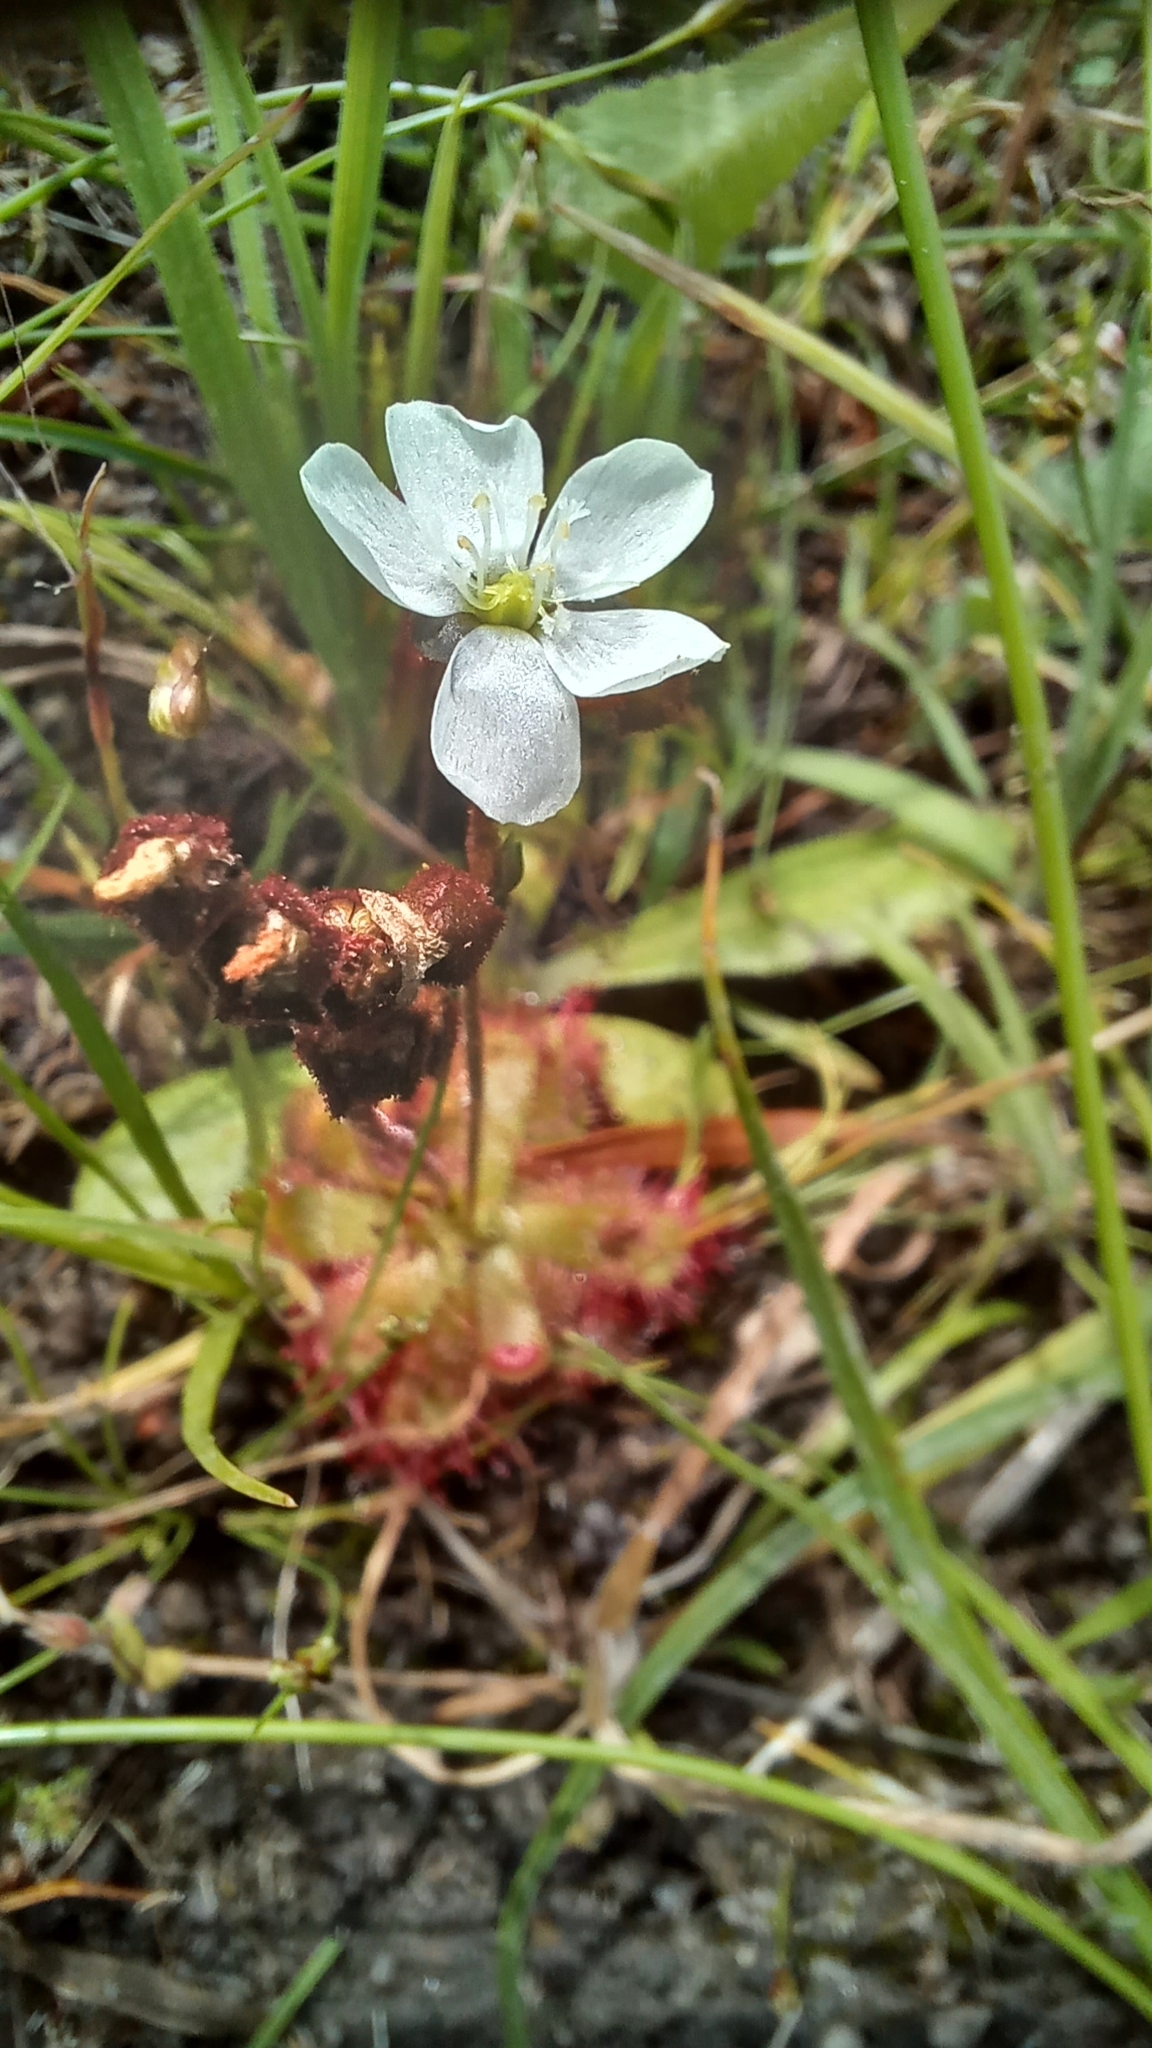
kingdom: Plantae
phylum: Tracheophyta
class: Magnoliopsida
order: Caryophyllales
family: Droseraceae
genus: Drosera
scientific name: Drosera trinervia
